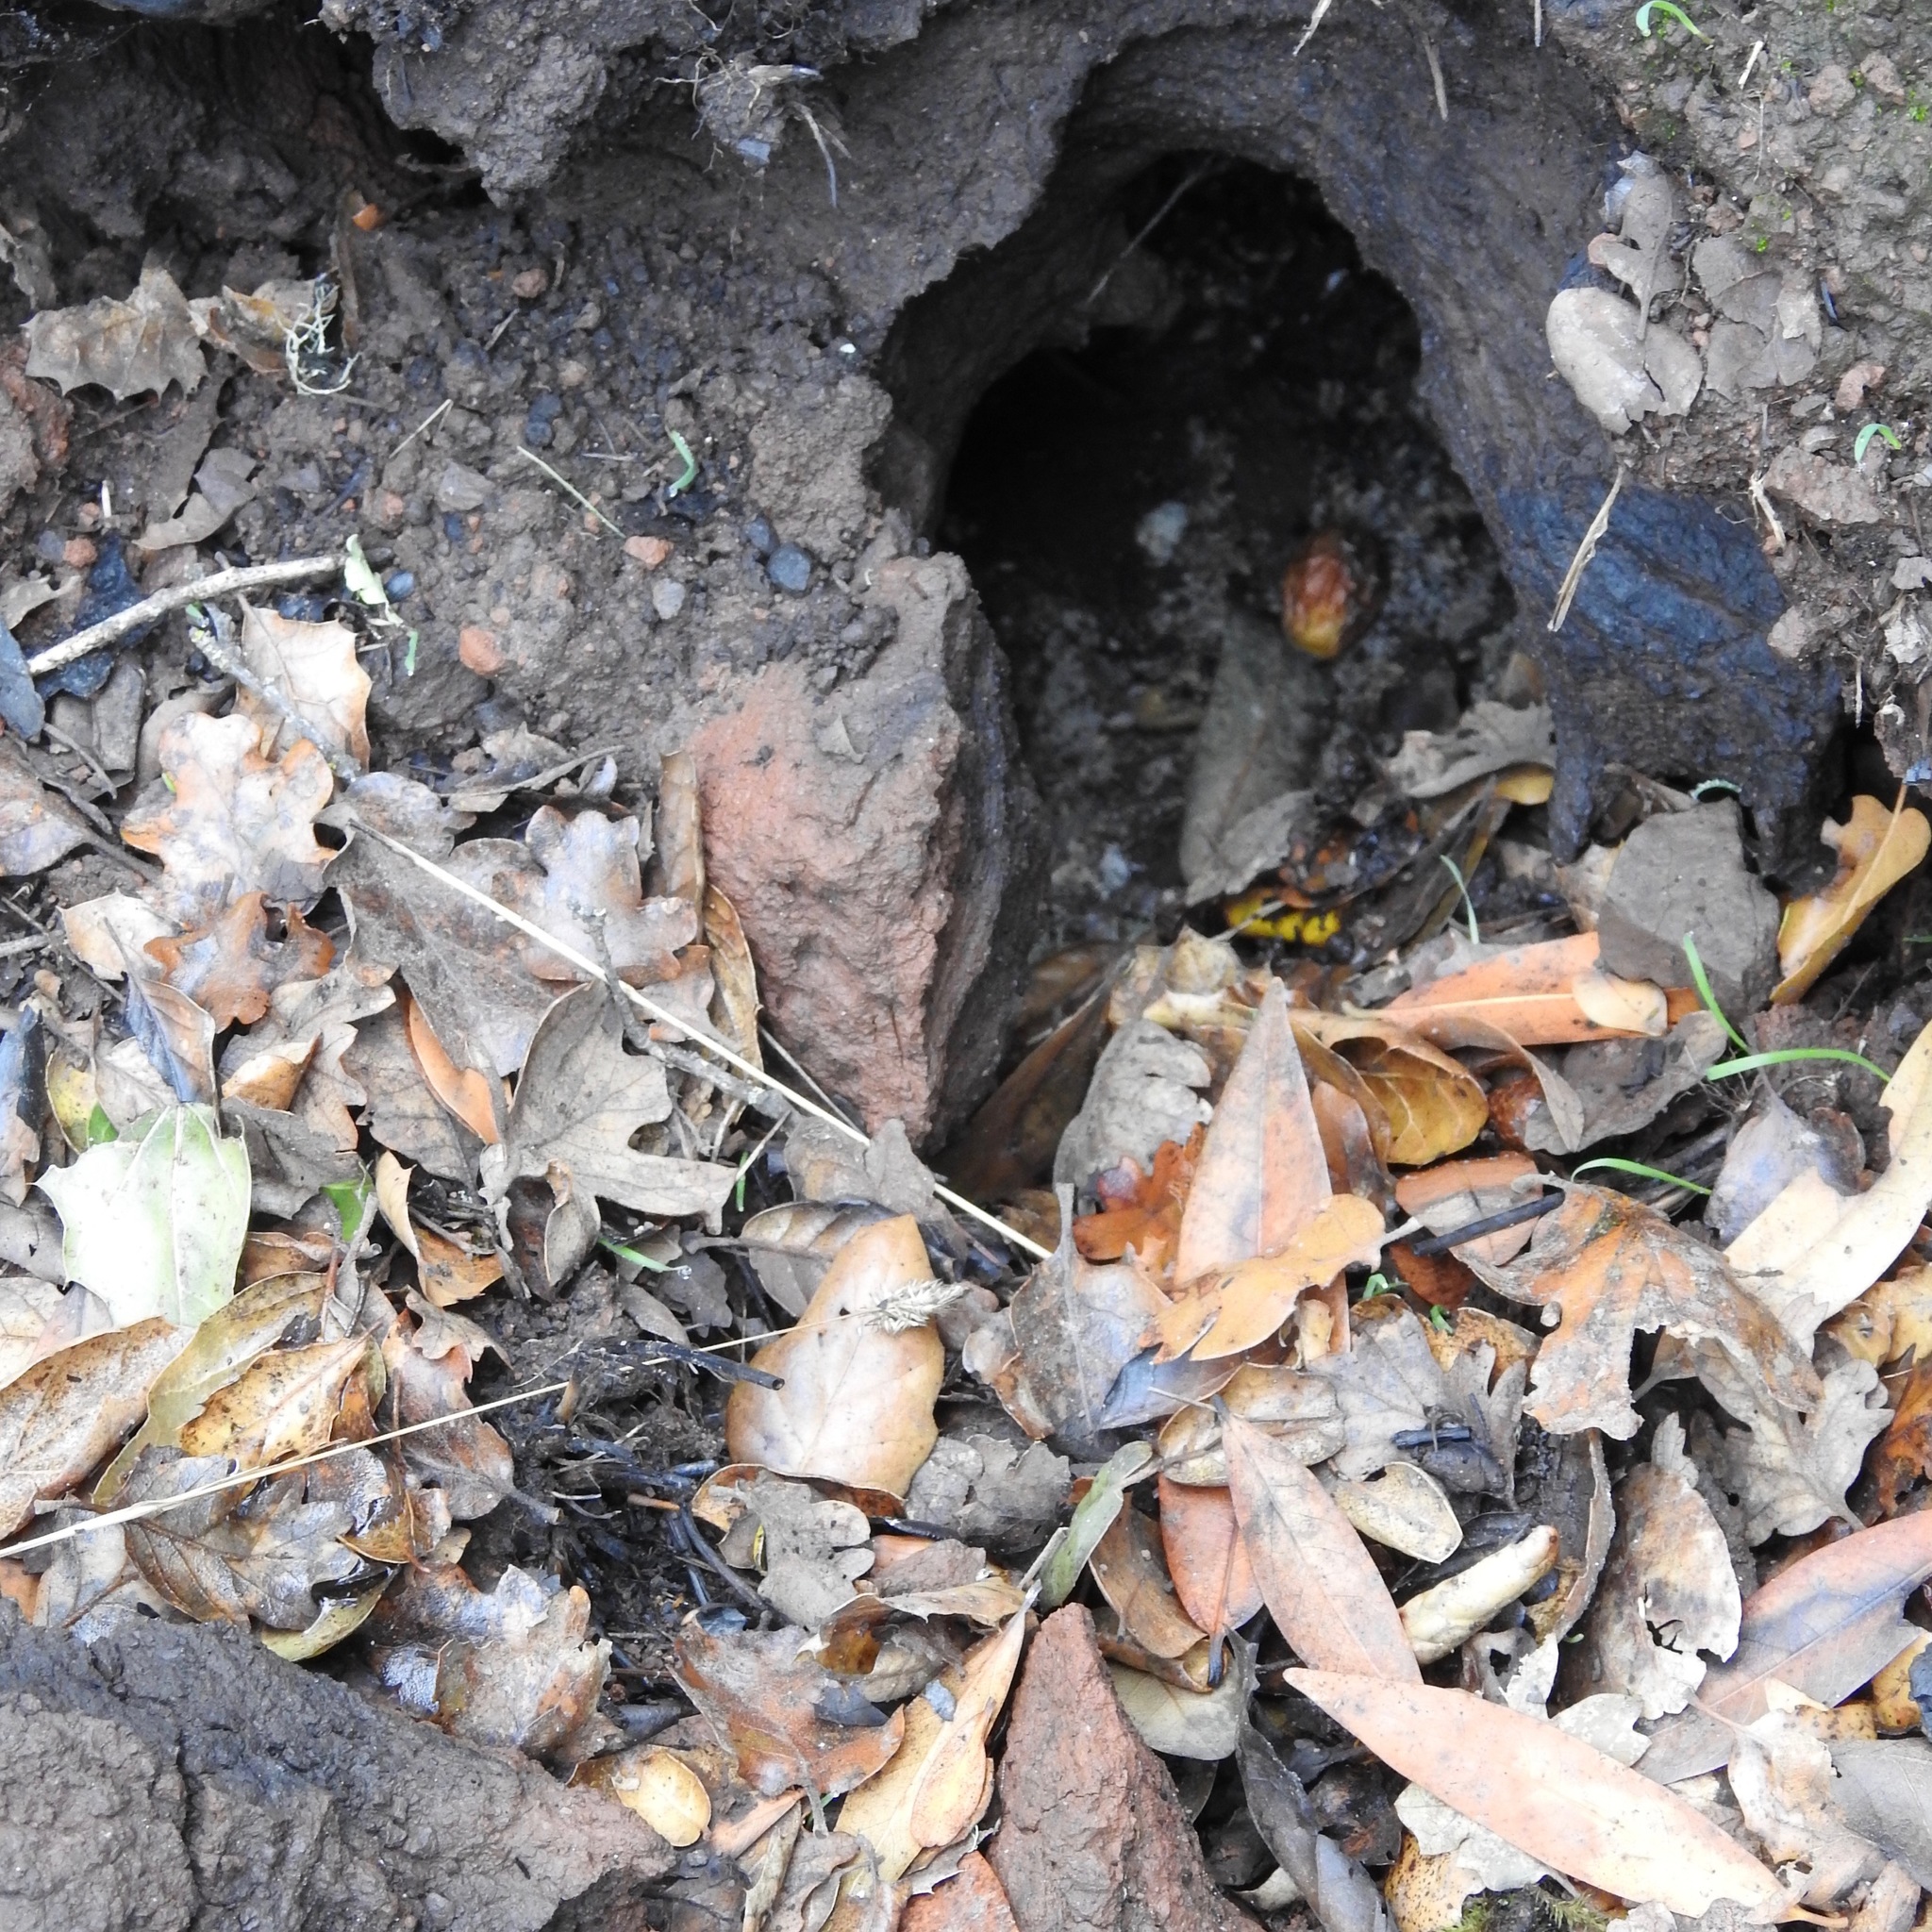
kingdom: Plantae
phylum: Tracheophyta
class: Magnoliopsida
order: Laurales
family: Lauraceae
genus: Umbellularia
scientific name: Umbellularia californica
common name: California bay
